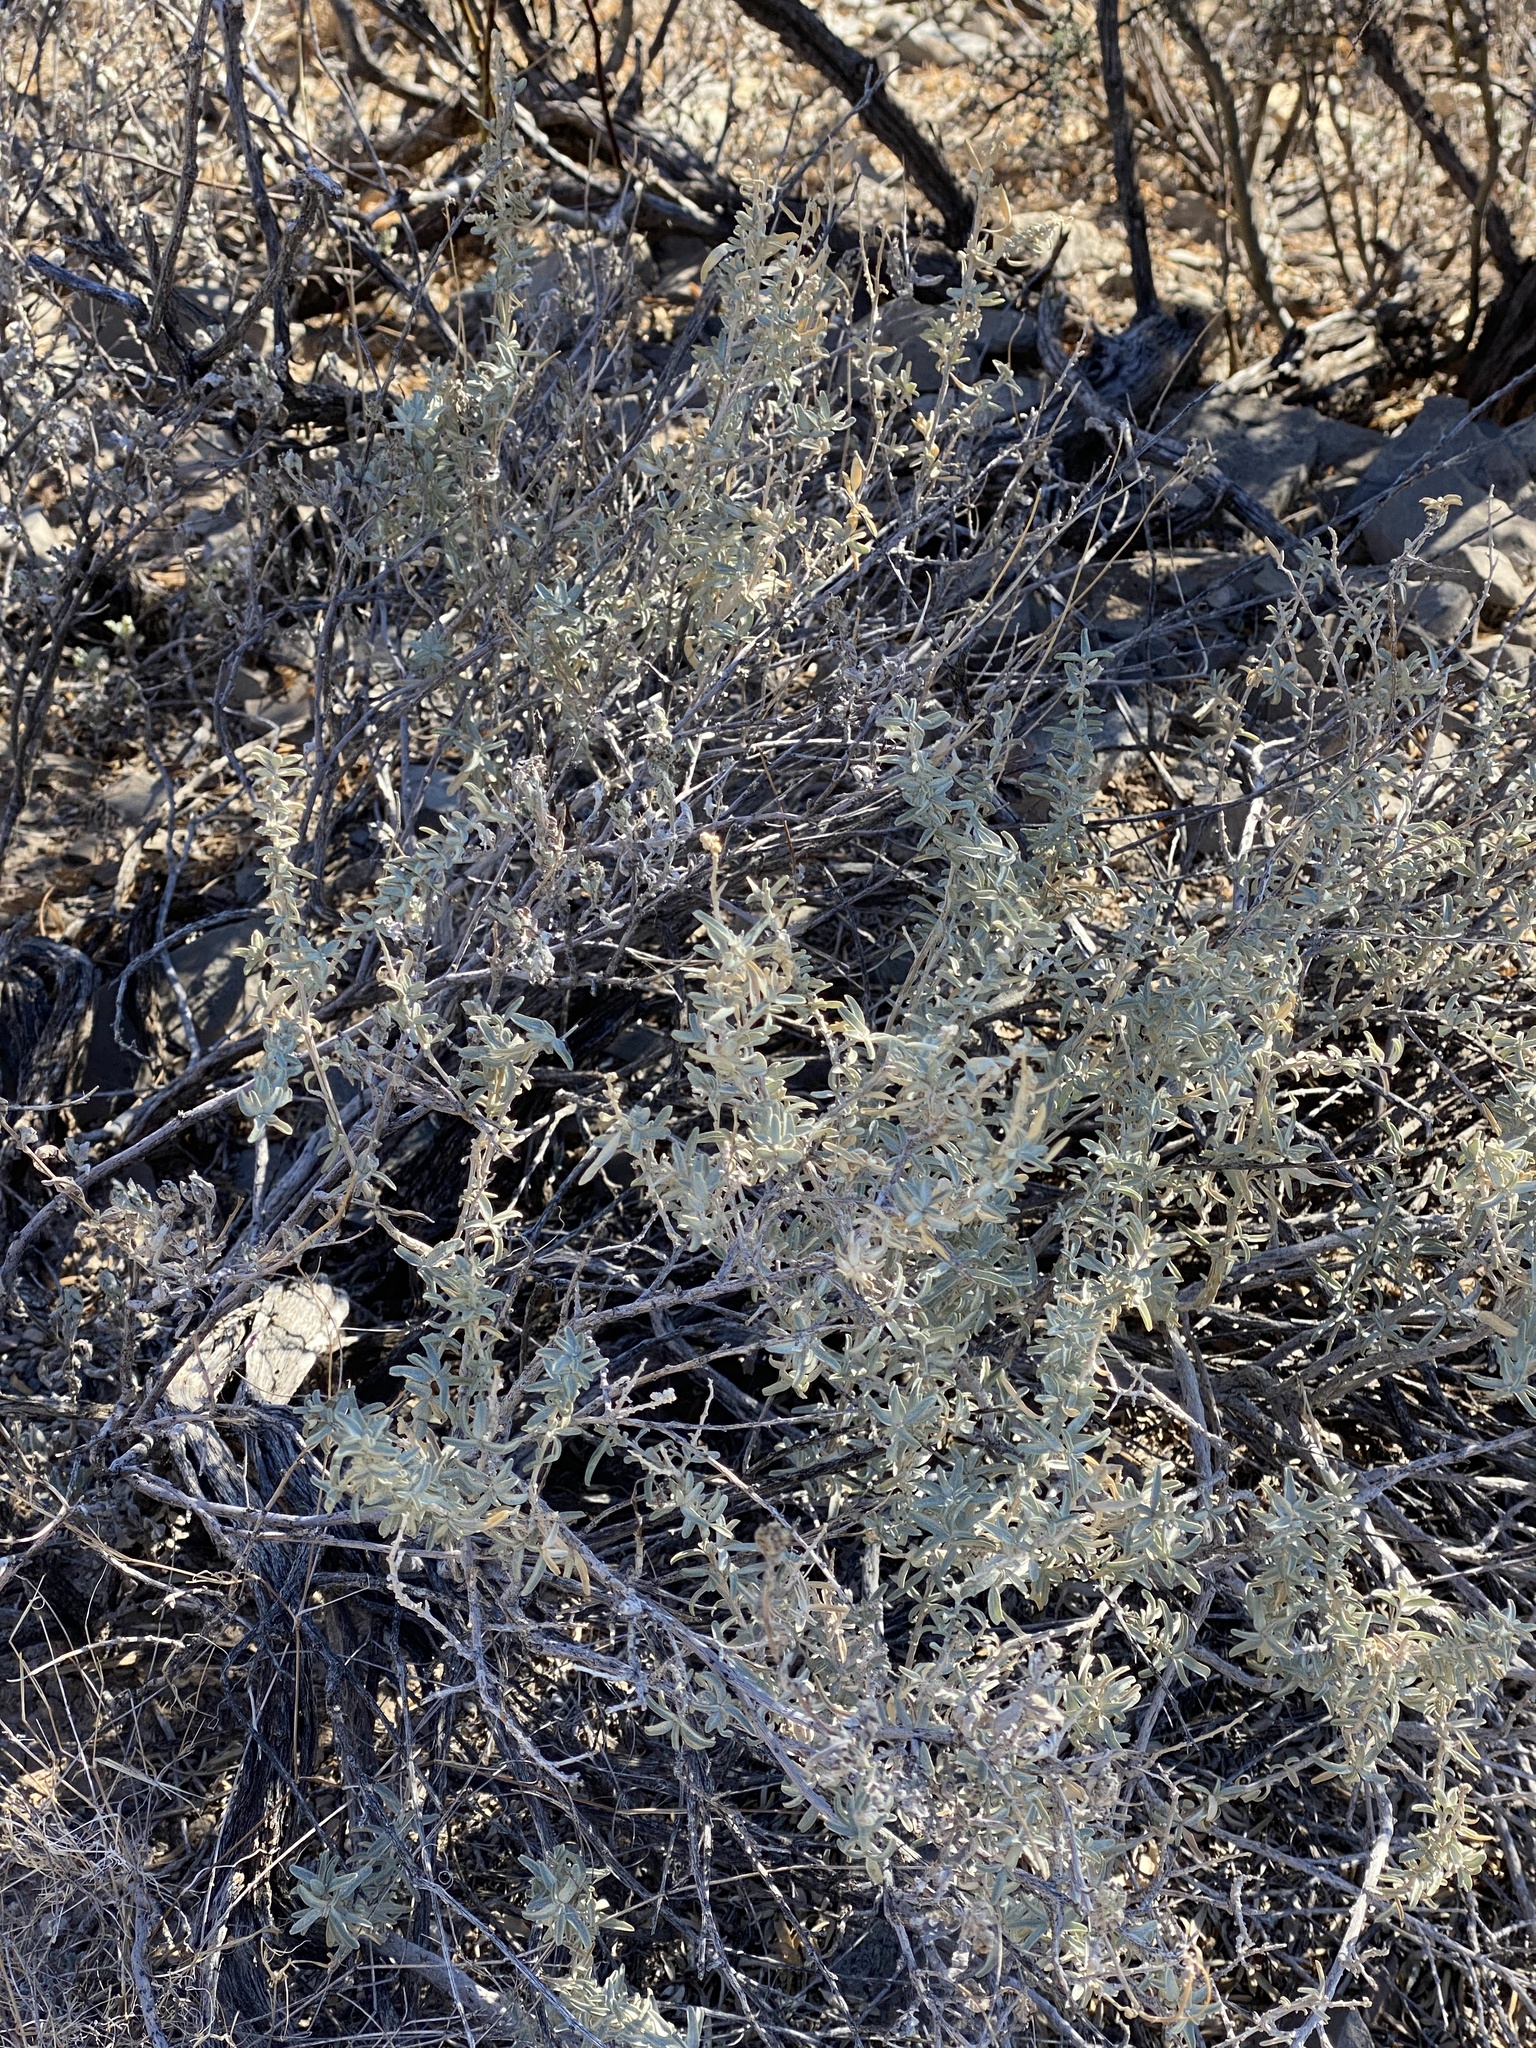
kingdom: Plantae
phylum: Tracheophyta
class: Magnoliopsida
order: Caryophyllales
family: Amaranthaceae
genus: Atriplex
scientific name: Atriplex canescens
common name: Four-wing saltbush
